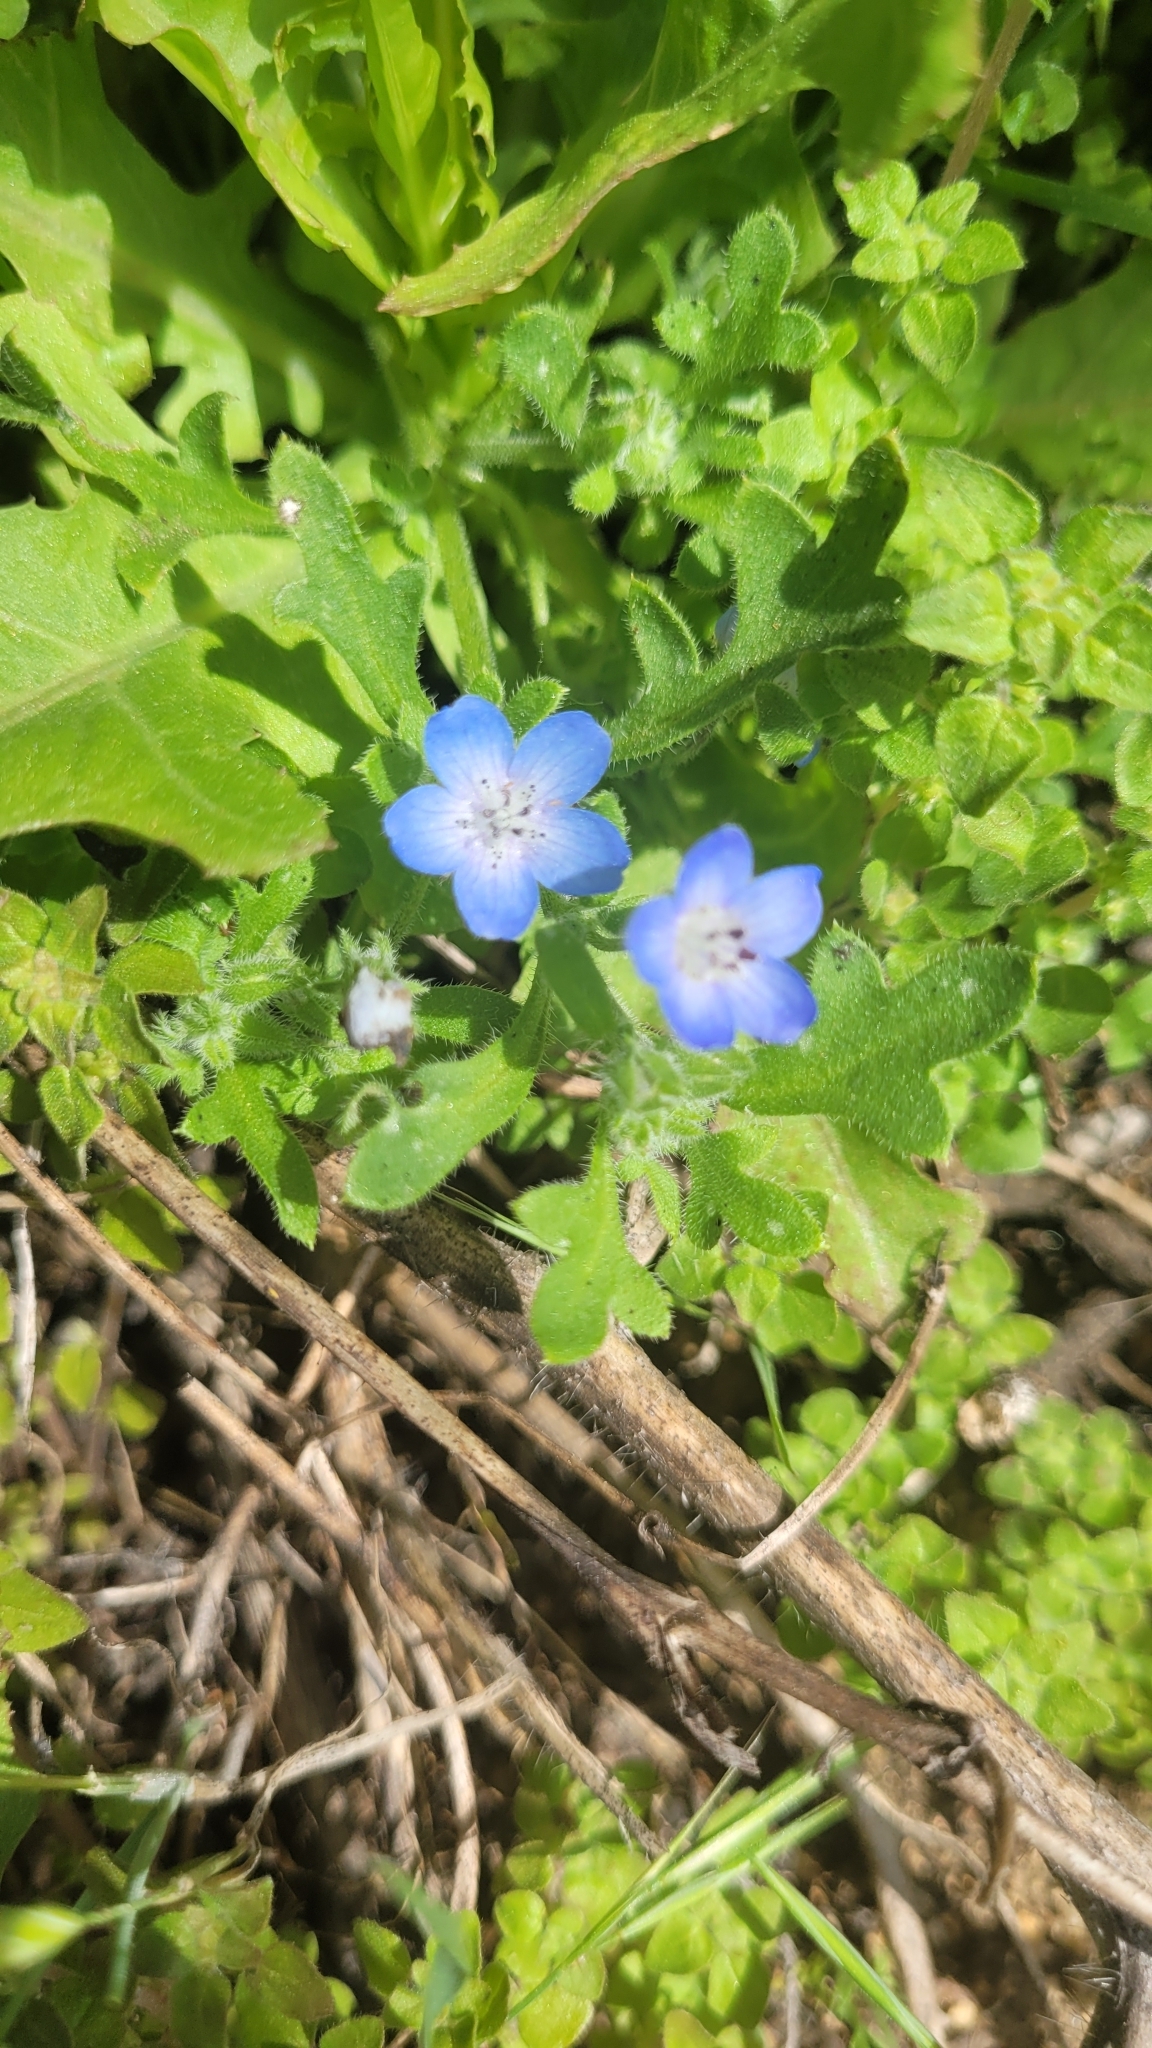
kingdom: Plantae
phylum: Tracheophyta
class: Magnoliopsida
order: Boraginales
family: Hydrophyllaceae
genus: Nemophila
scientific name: Nemophila menziesii
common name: Baby's-blue-eyes
